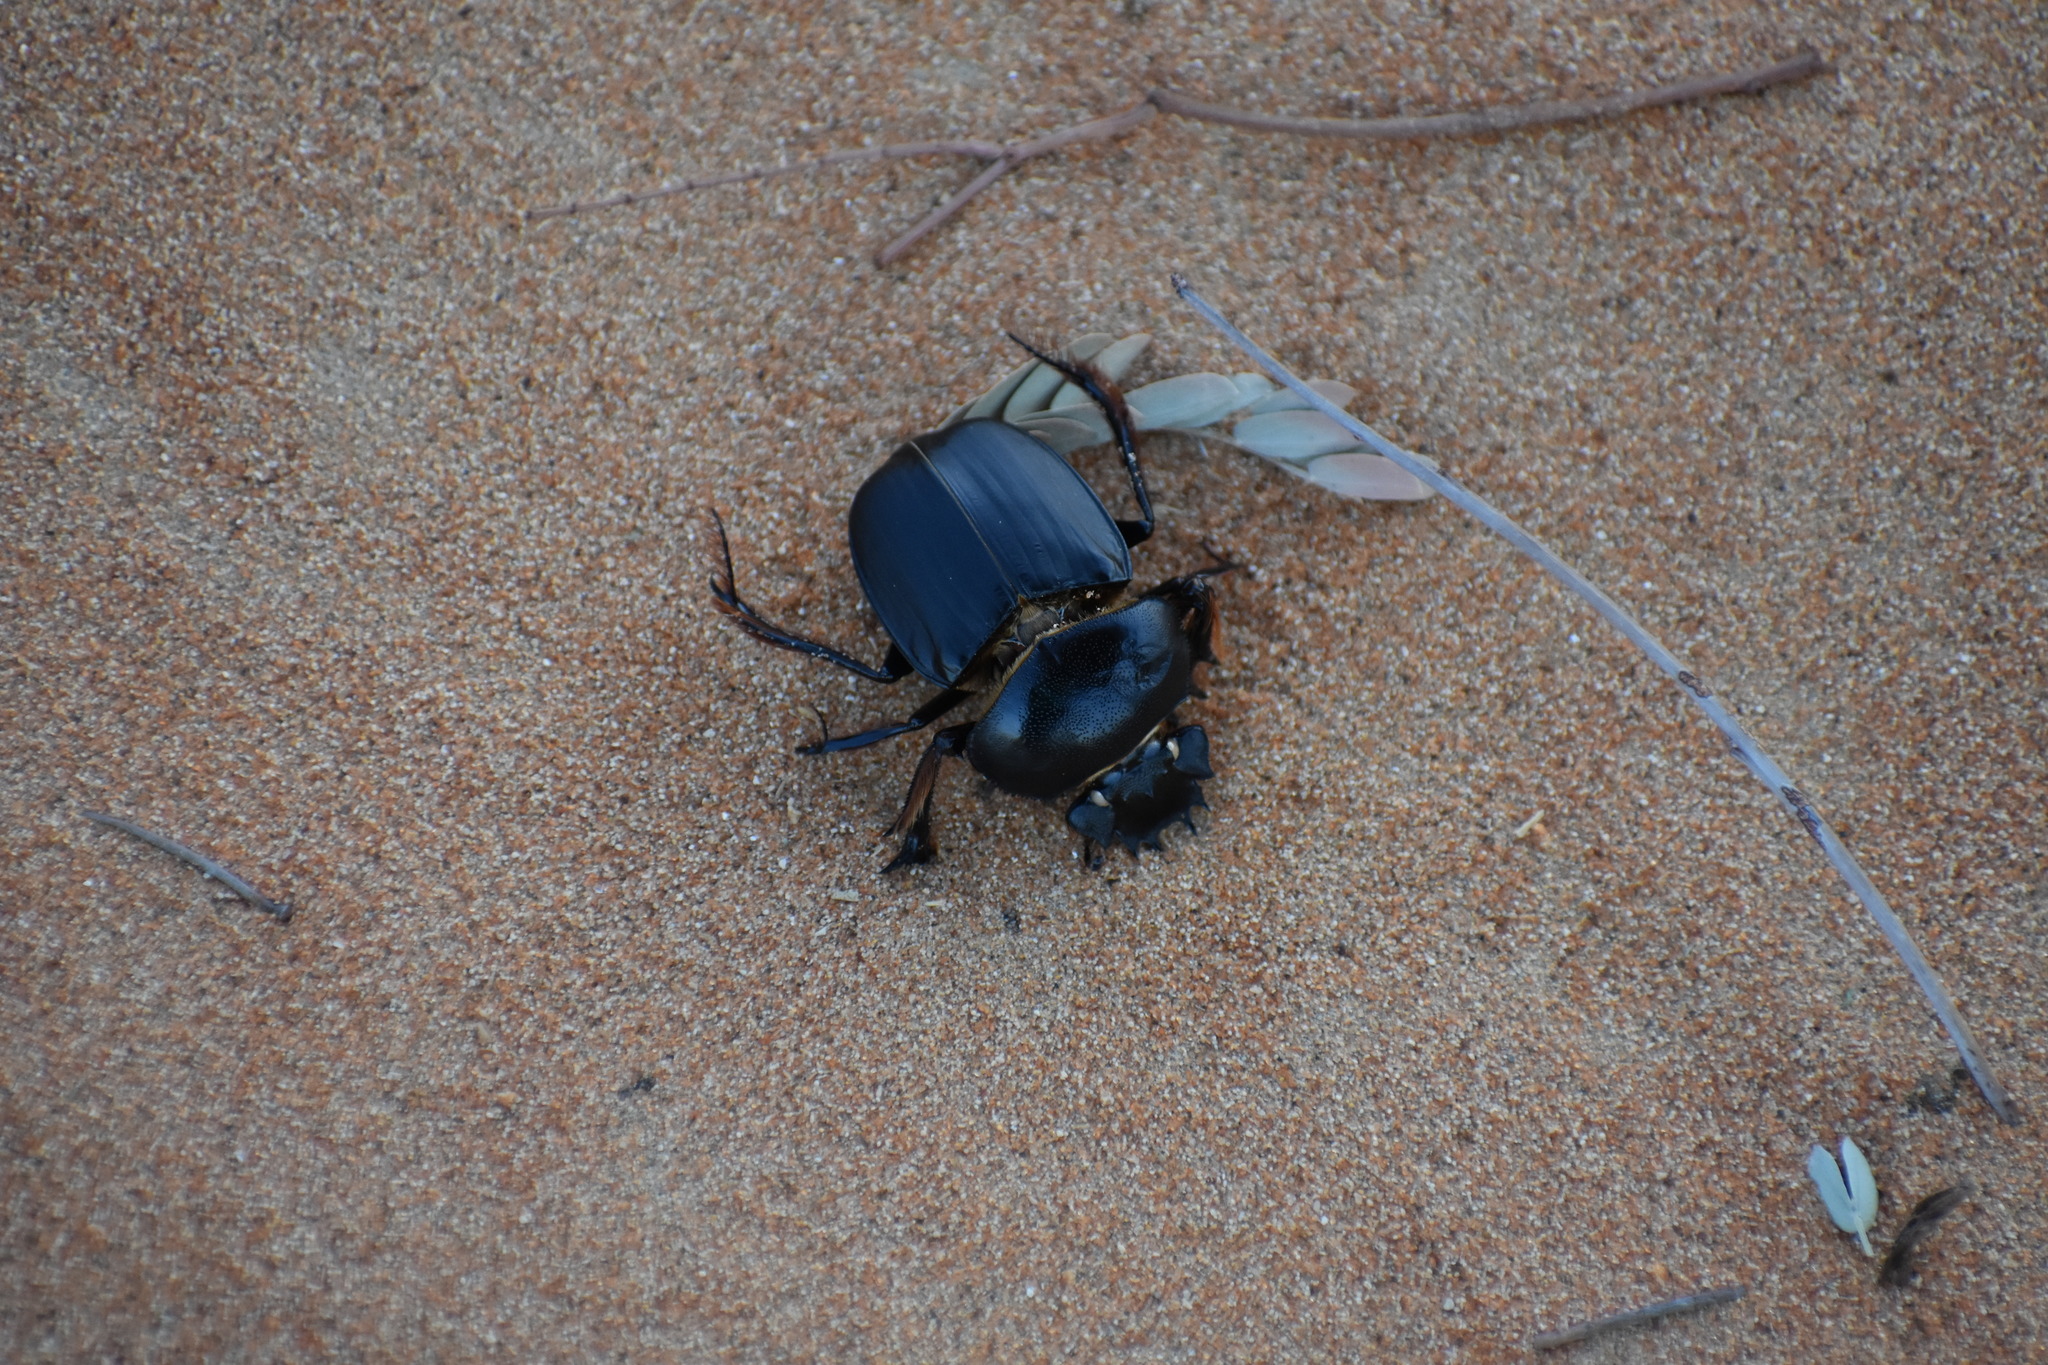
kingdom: Animalia
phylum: Arthropoda
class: Insecta
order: Coleoptera
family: Scarabaeidae
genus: Escarabaeus
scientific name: Escarabaeus bannuensis
